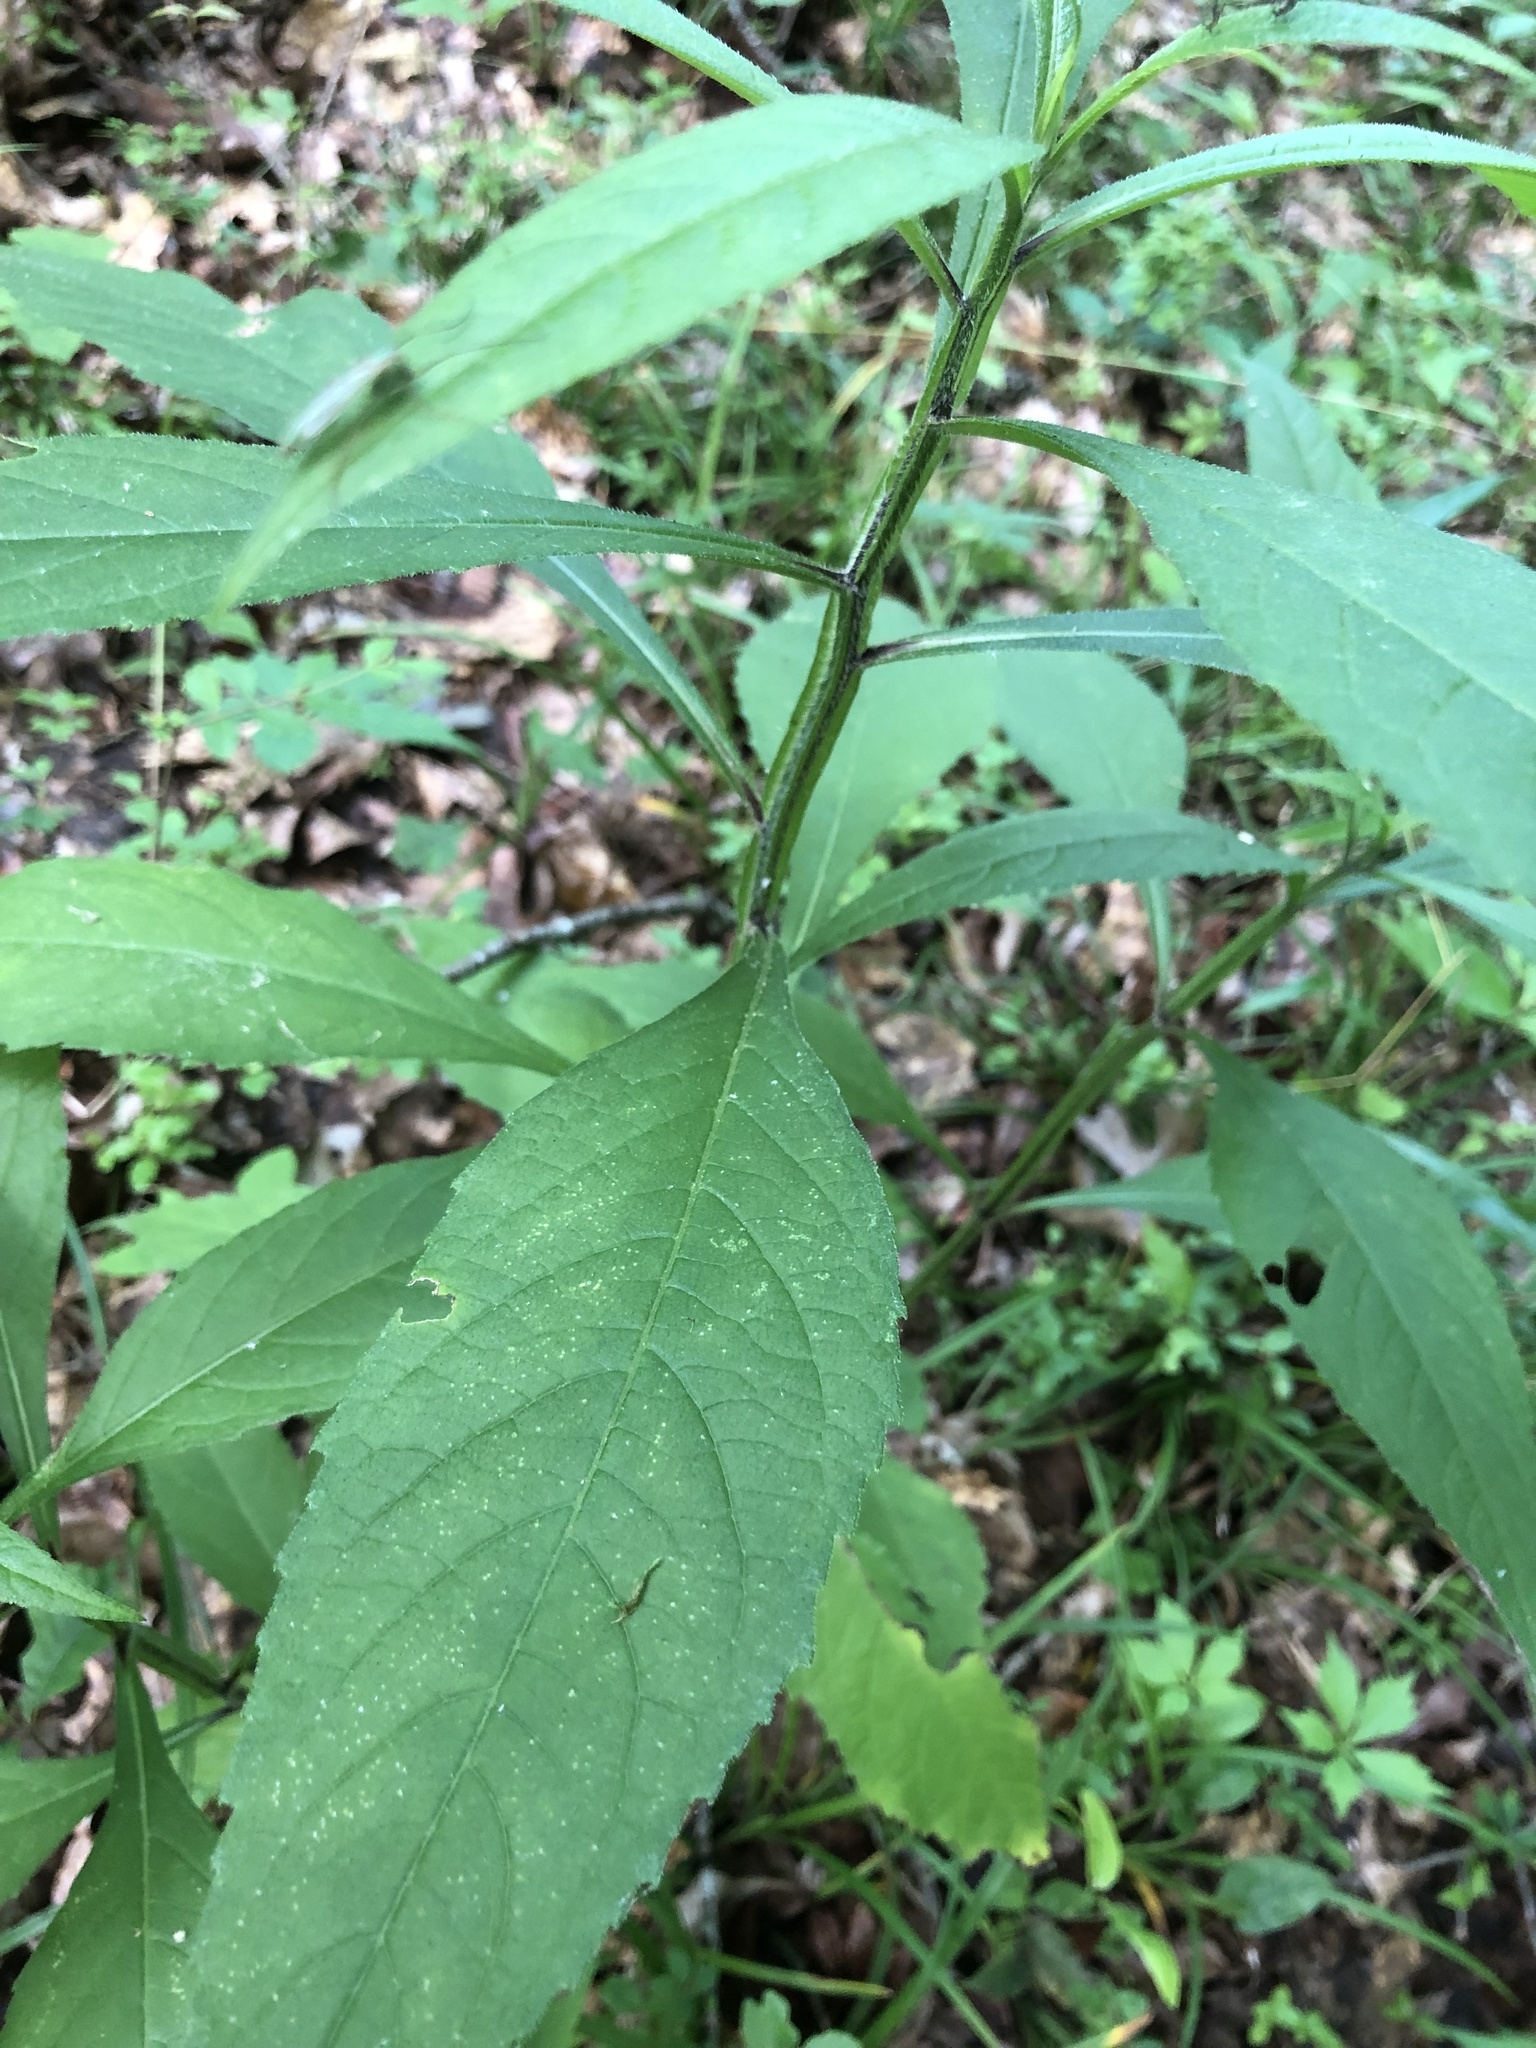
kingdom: Plantae
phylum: Tracheophyta
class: Magnoliopsida
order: Asterales
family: Asteraceae
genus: Verbesina
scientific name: Verbesina alternifolia
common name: Wingstem
